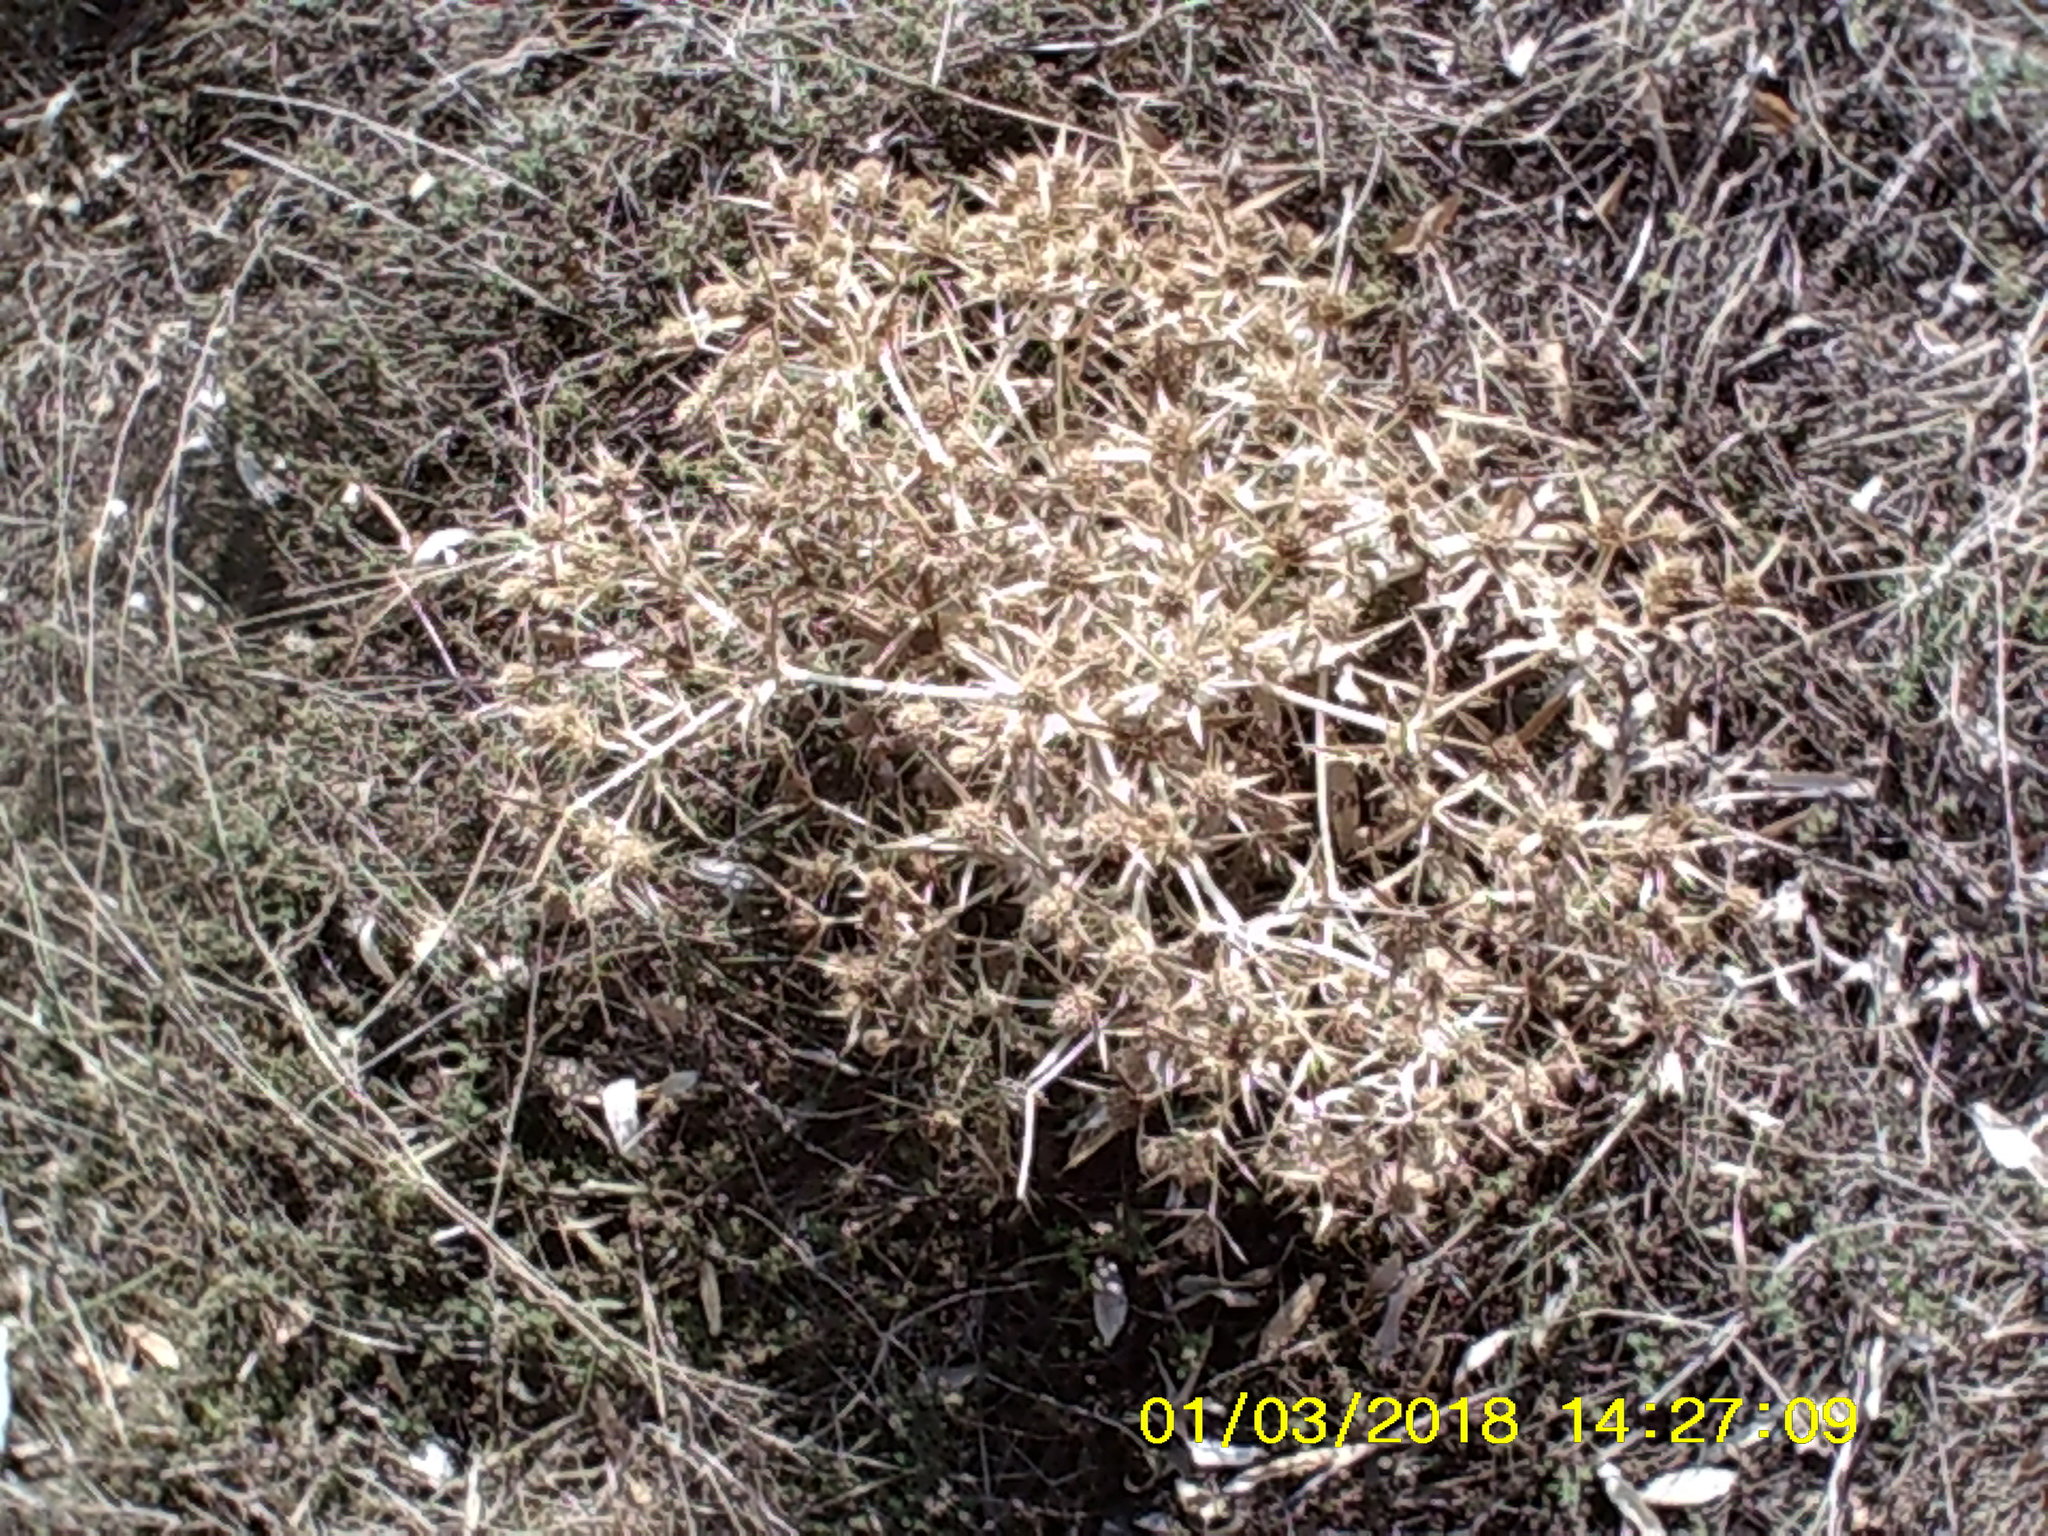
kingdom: Plantae
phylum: Tracheophyta
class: Magnoliopsida
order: Apiales
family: Apiaceae
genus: Eryngium
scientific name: Eryngium campestre
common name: Field eryngo
